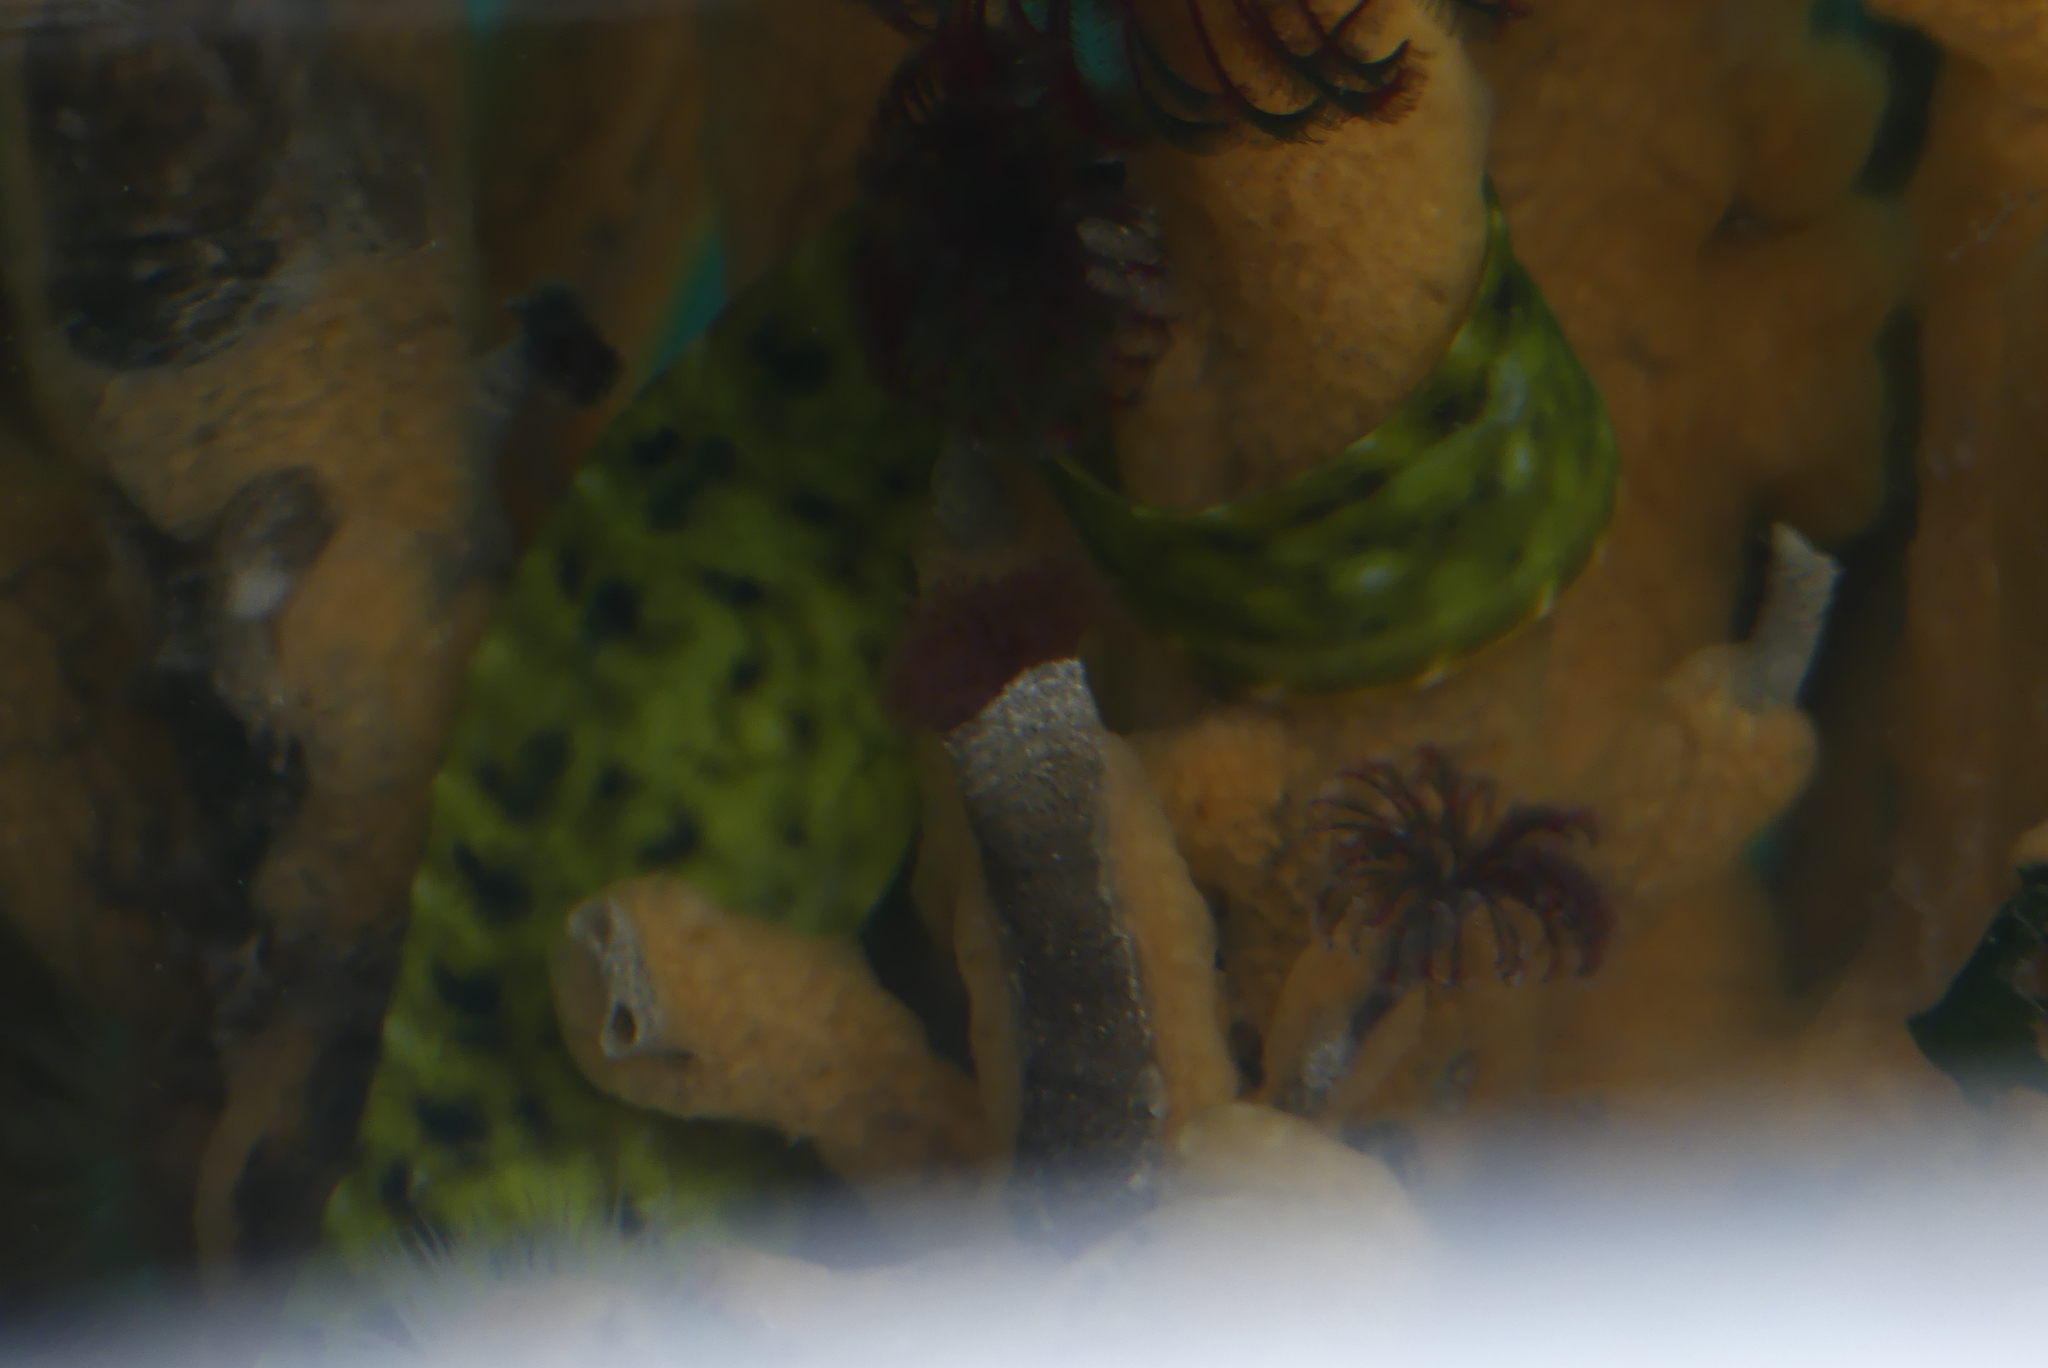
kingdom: Animalia
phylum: Chordata
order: Perciformes
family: Pholidae
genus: Apodichthys
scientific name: Apodichthys flavidus
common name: Penpoint gunnel
